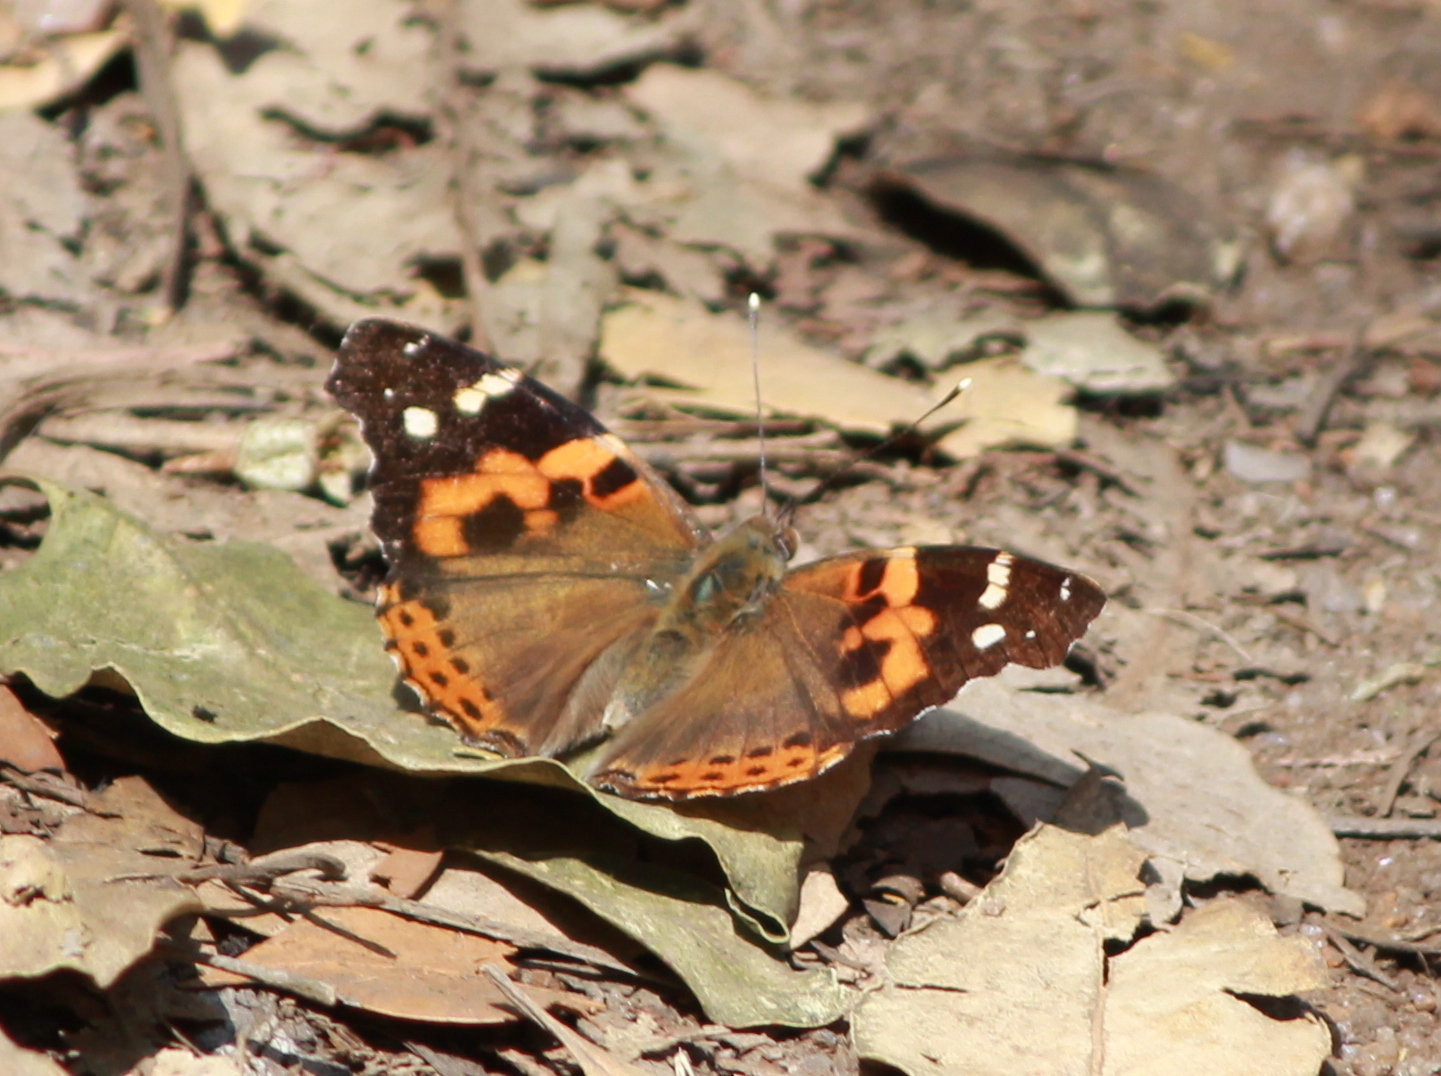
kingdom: Animalia
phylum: Arthropoda
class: Insecta
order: Lepidoptera
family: Nymphalidae
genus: Vanessa
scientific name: Vanessa indica
